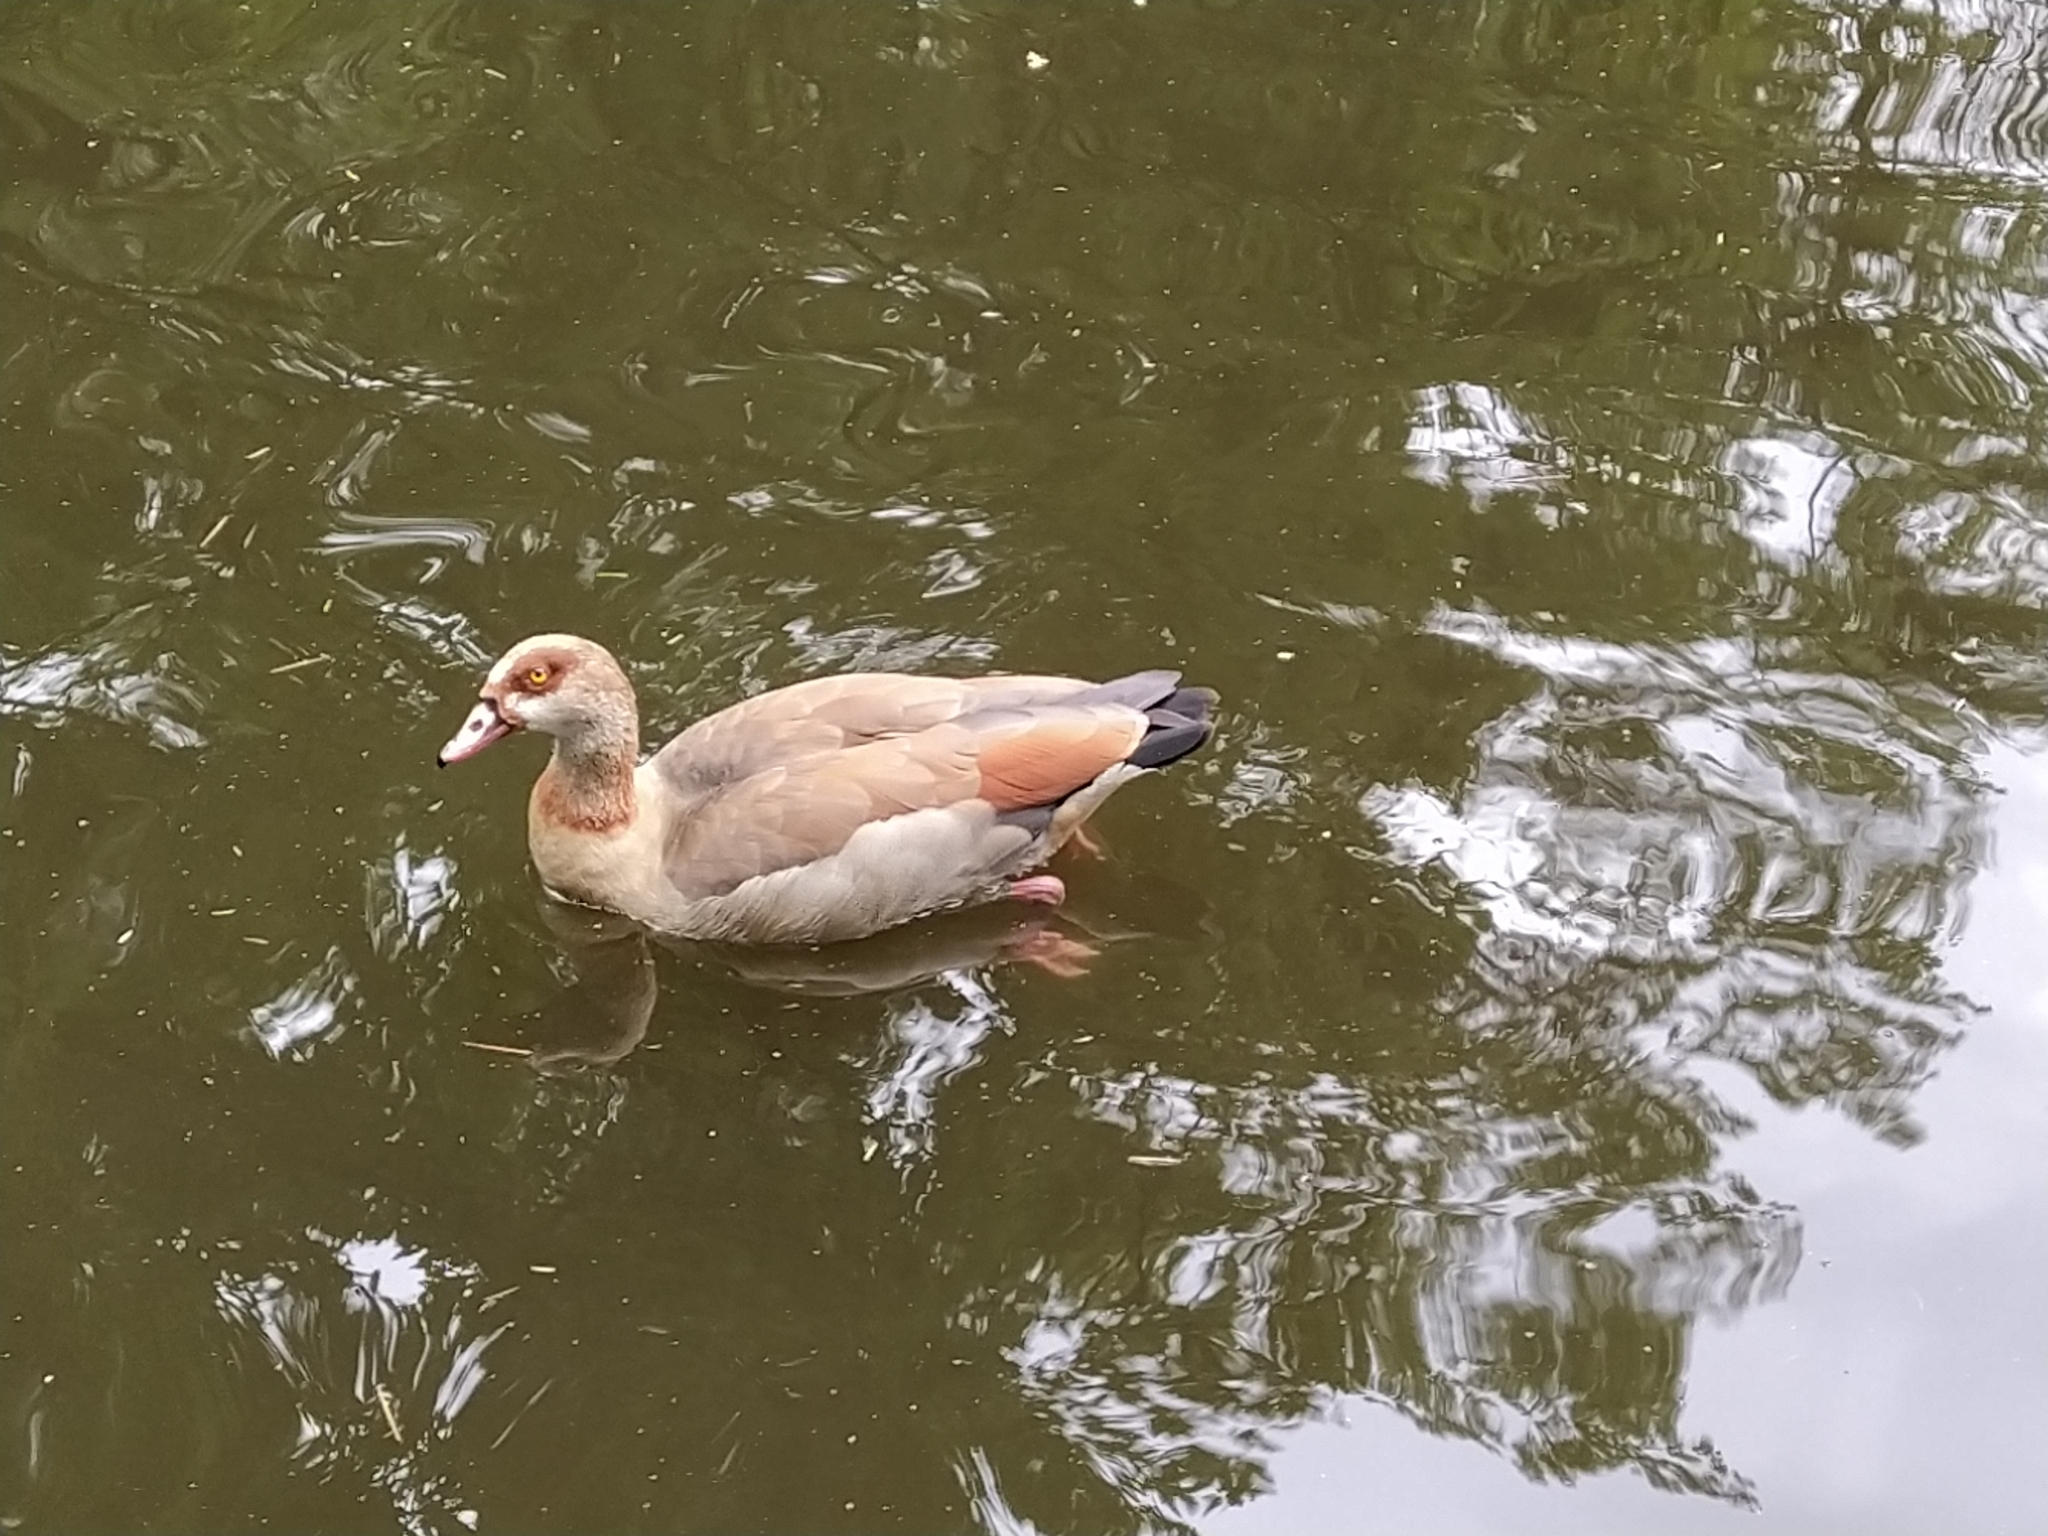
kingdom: Animalia
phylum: Chordata
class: Aves
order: Anseriformes
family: Anatidae
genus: Alopochen
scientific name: Alopochen aegyptiaca
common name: Egyptian goose
